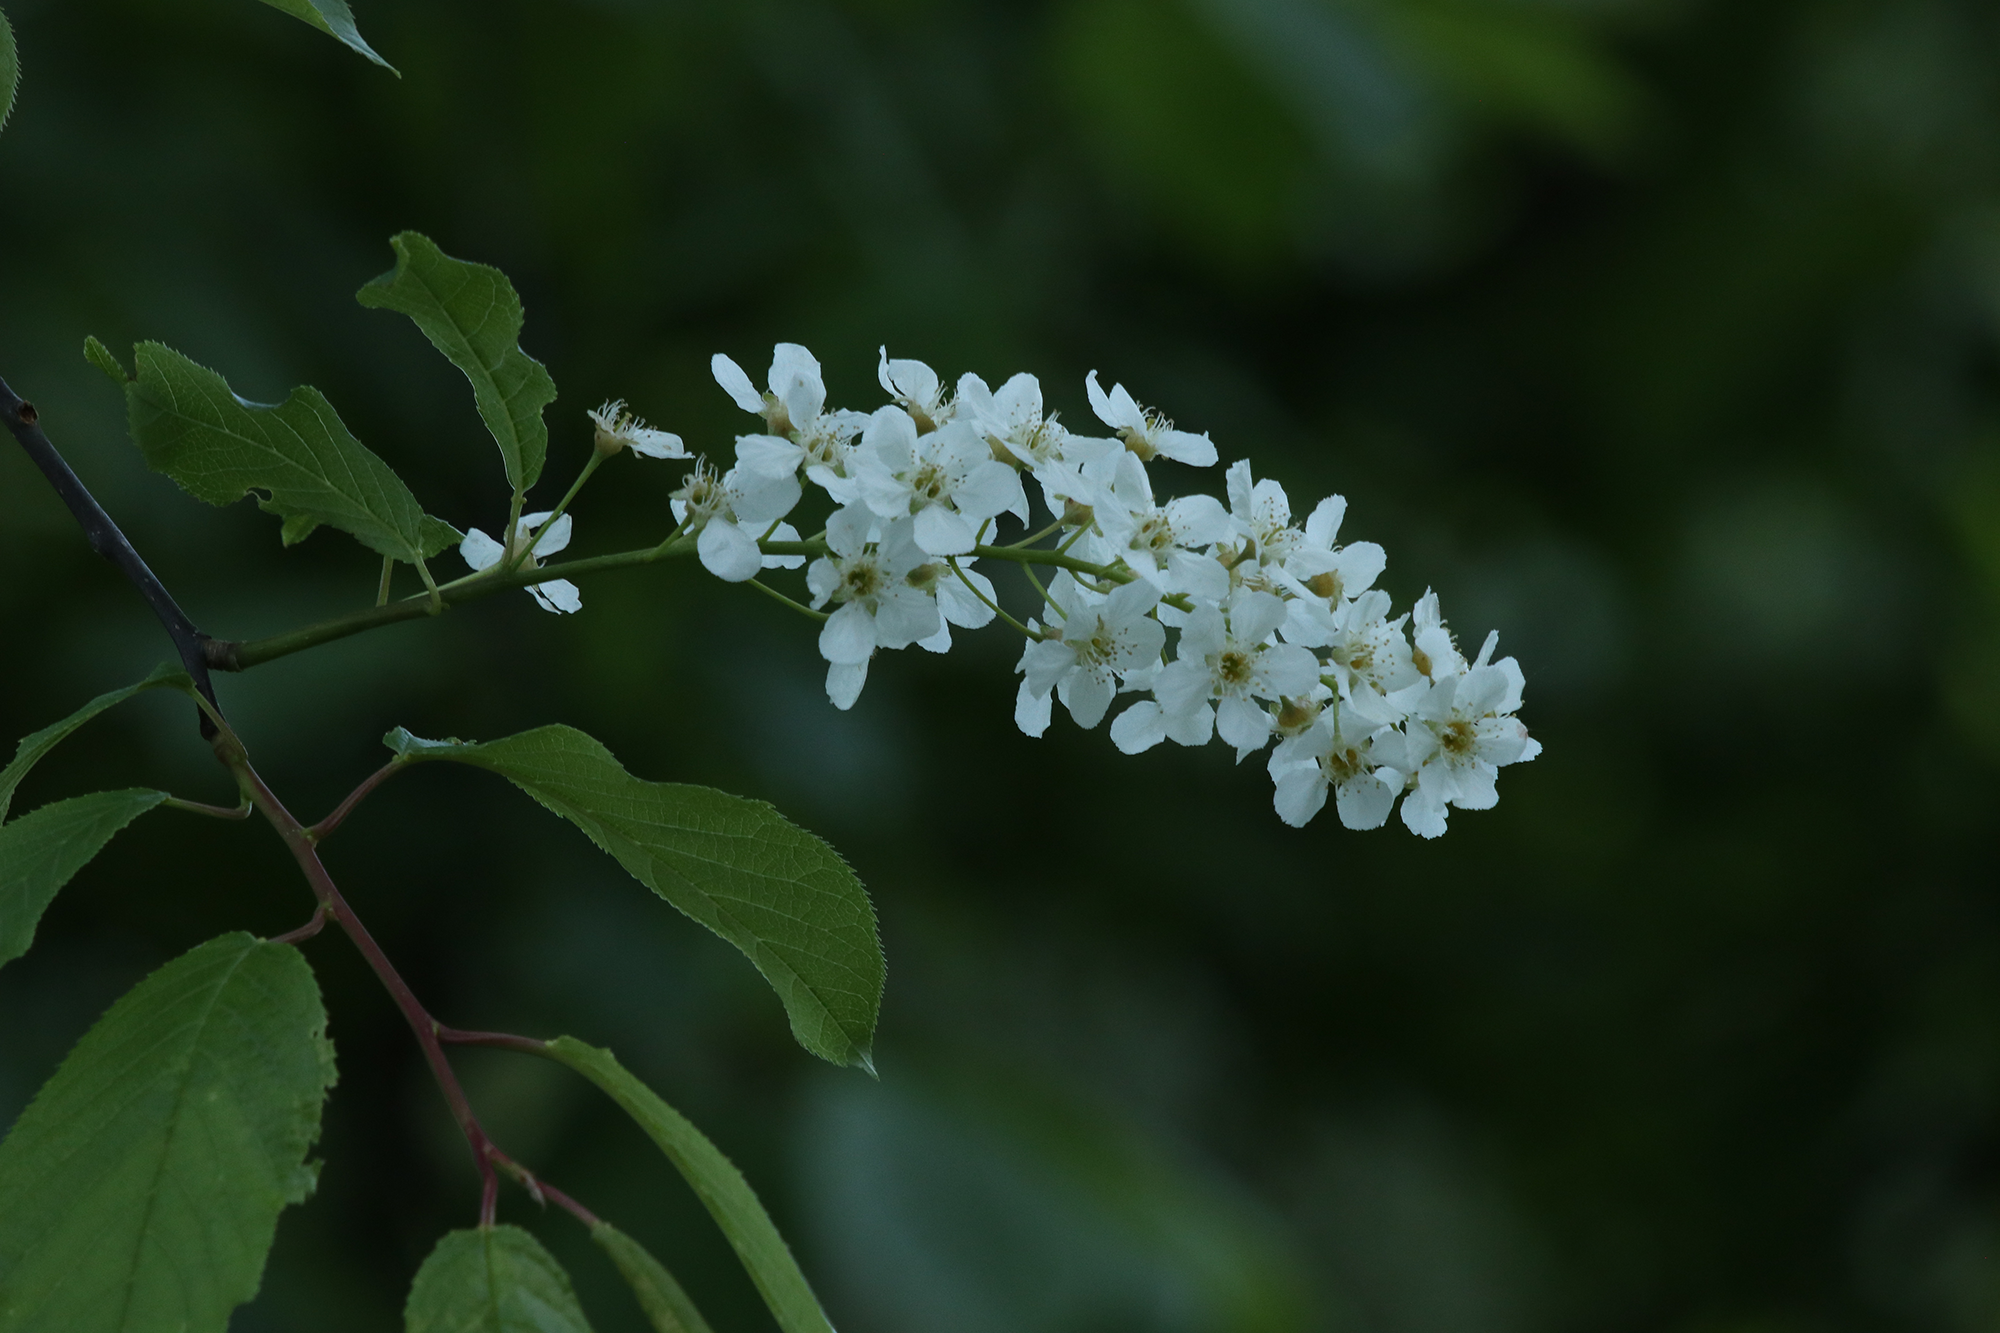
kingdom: Plantae
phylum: Tracheophyta
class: Magnoliopsida
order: Rosales
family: Rosaceae
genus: Prunus
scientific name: Prunus padus
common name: Bird cherry
